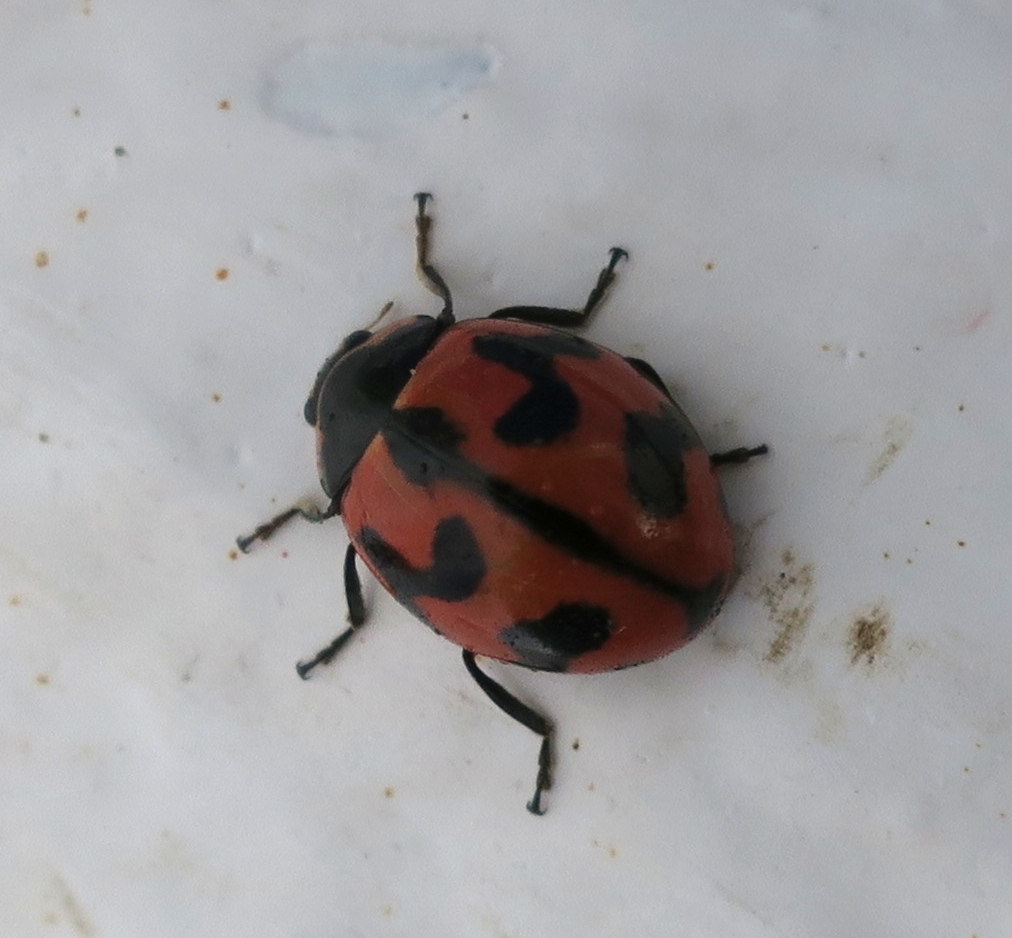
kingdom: Animalia
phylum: Arthropoda
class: Insecta
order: Coleoptera
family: Coccinellidae
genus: Coccinella
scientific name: Coccinella transversalis
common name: Transverse lady beetle
